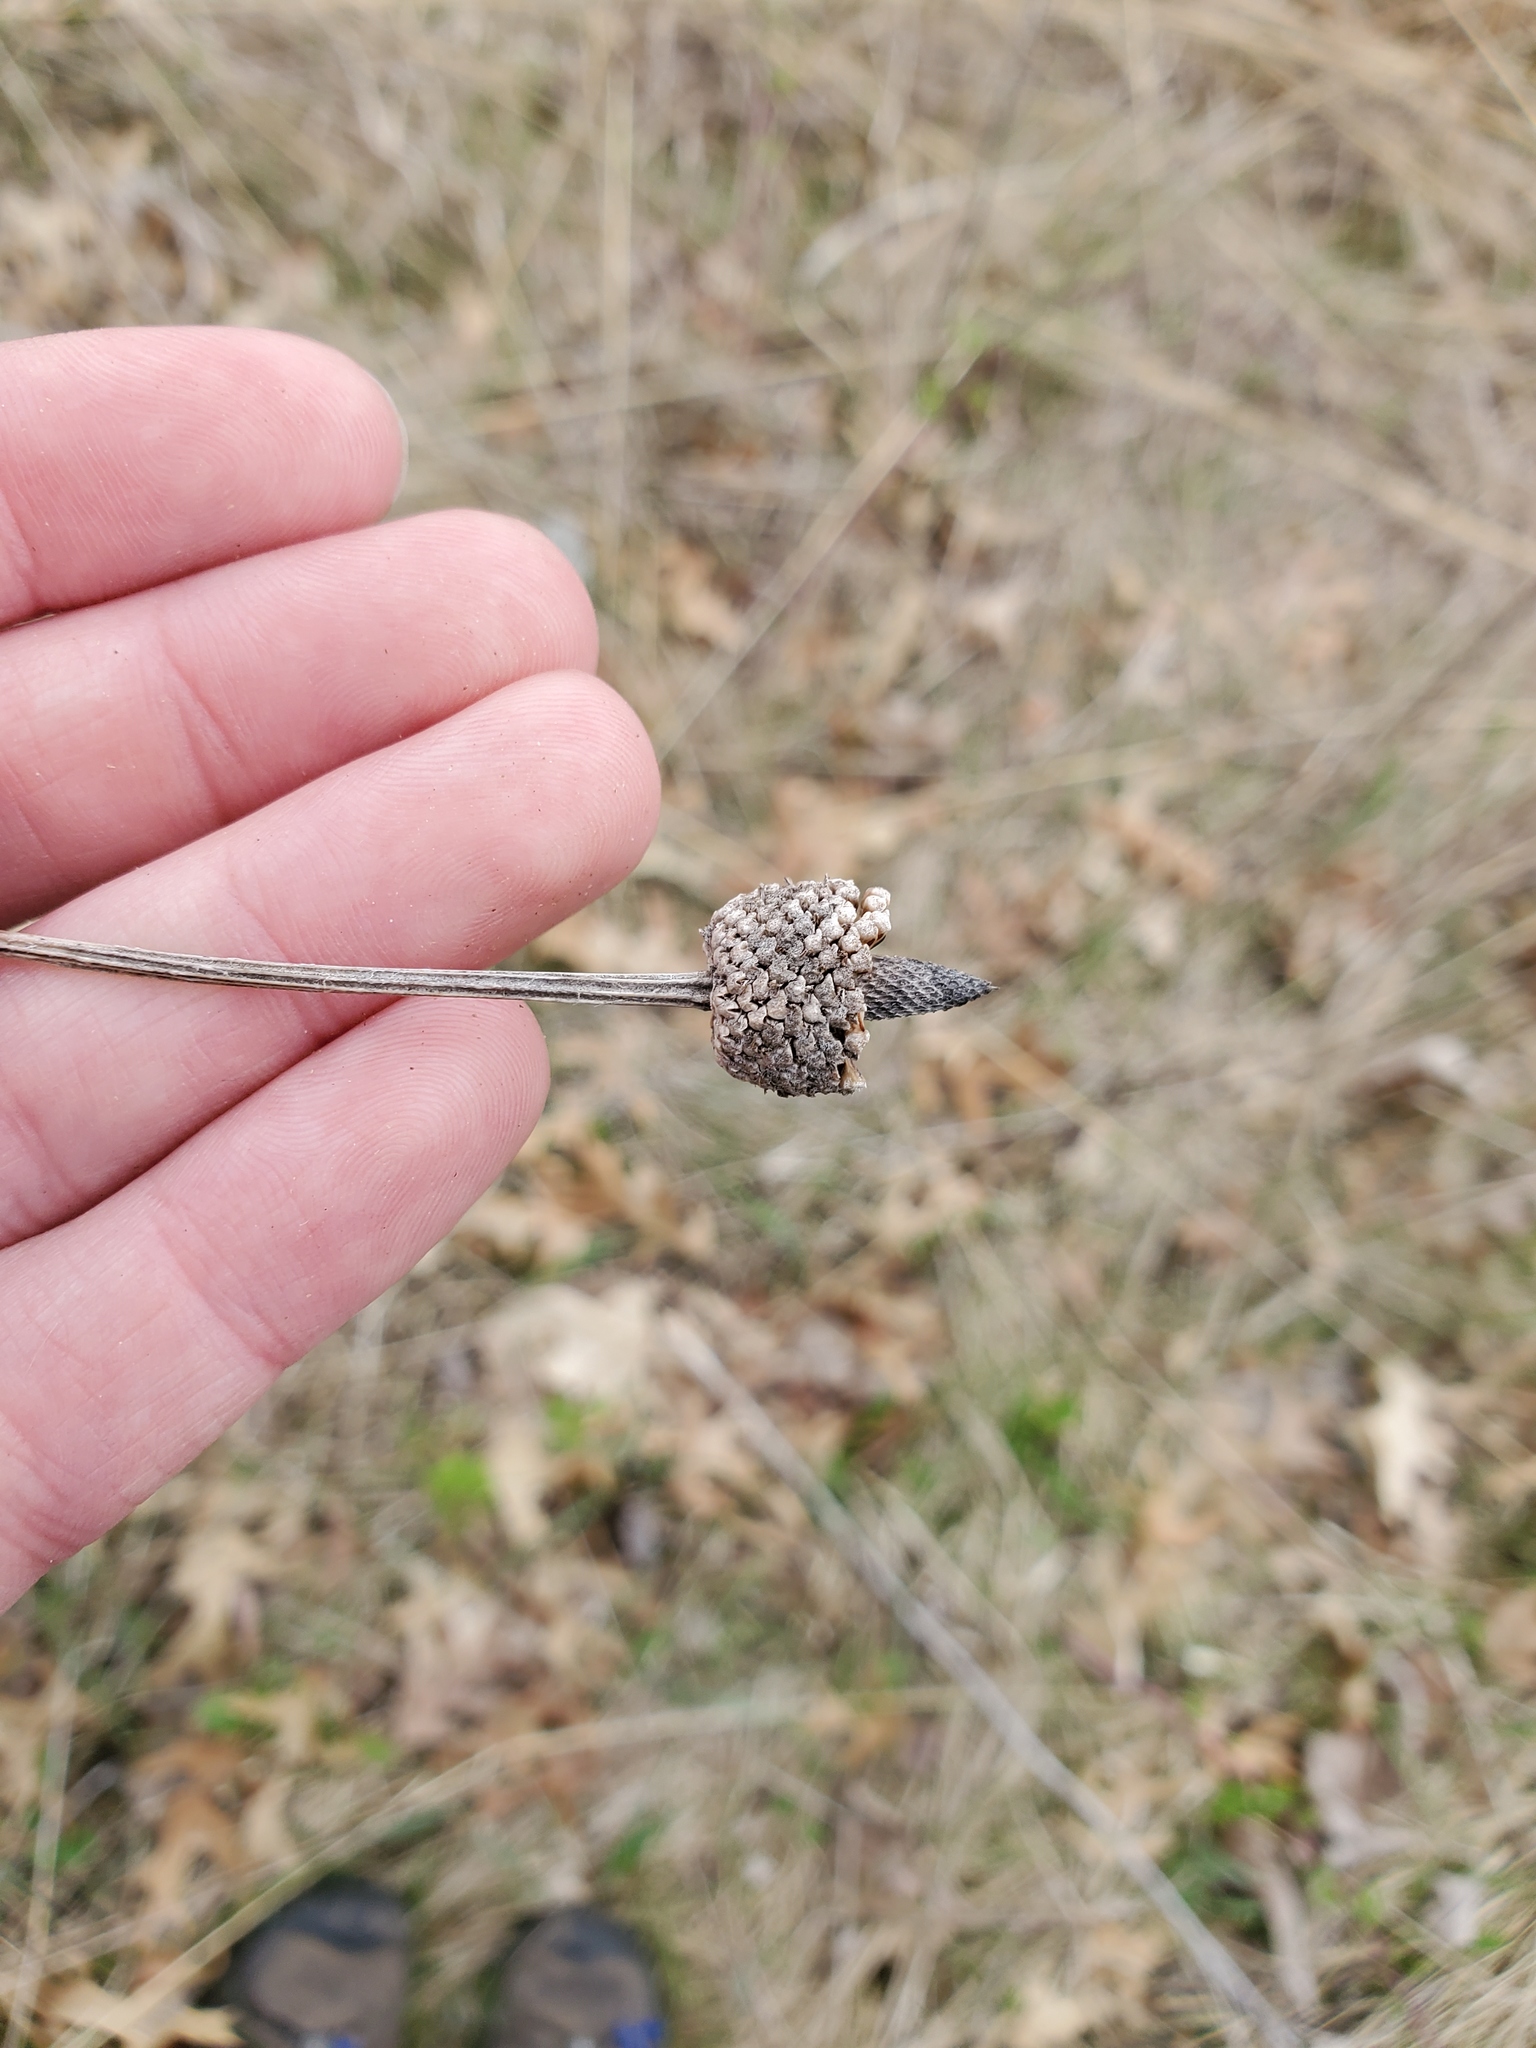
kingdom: Plantae
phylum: Tracheophyta
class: Magnoliopsida
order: Asterales
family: Asteraceae
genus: Ratibida
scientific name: Ratibida pinnata
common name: Drooping prairie-coneflower
